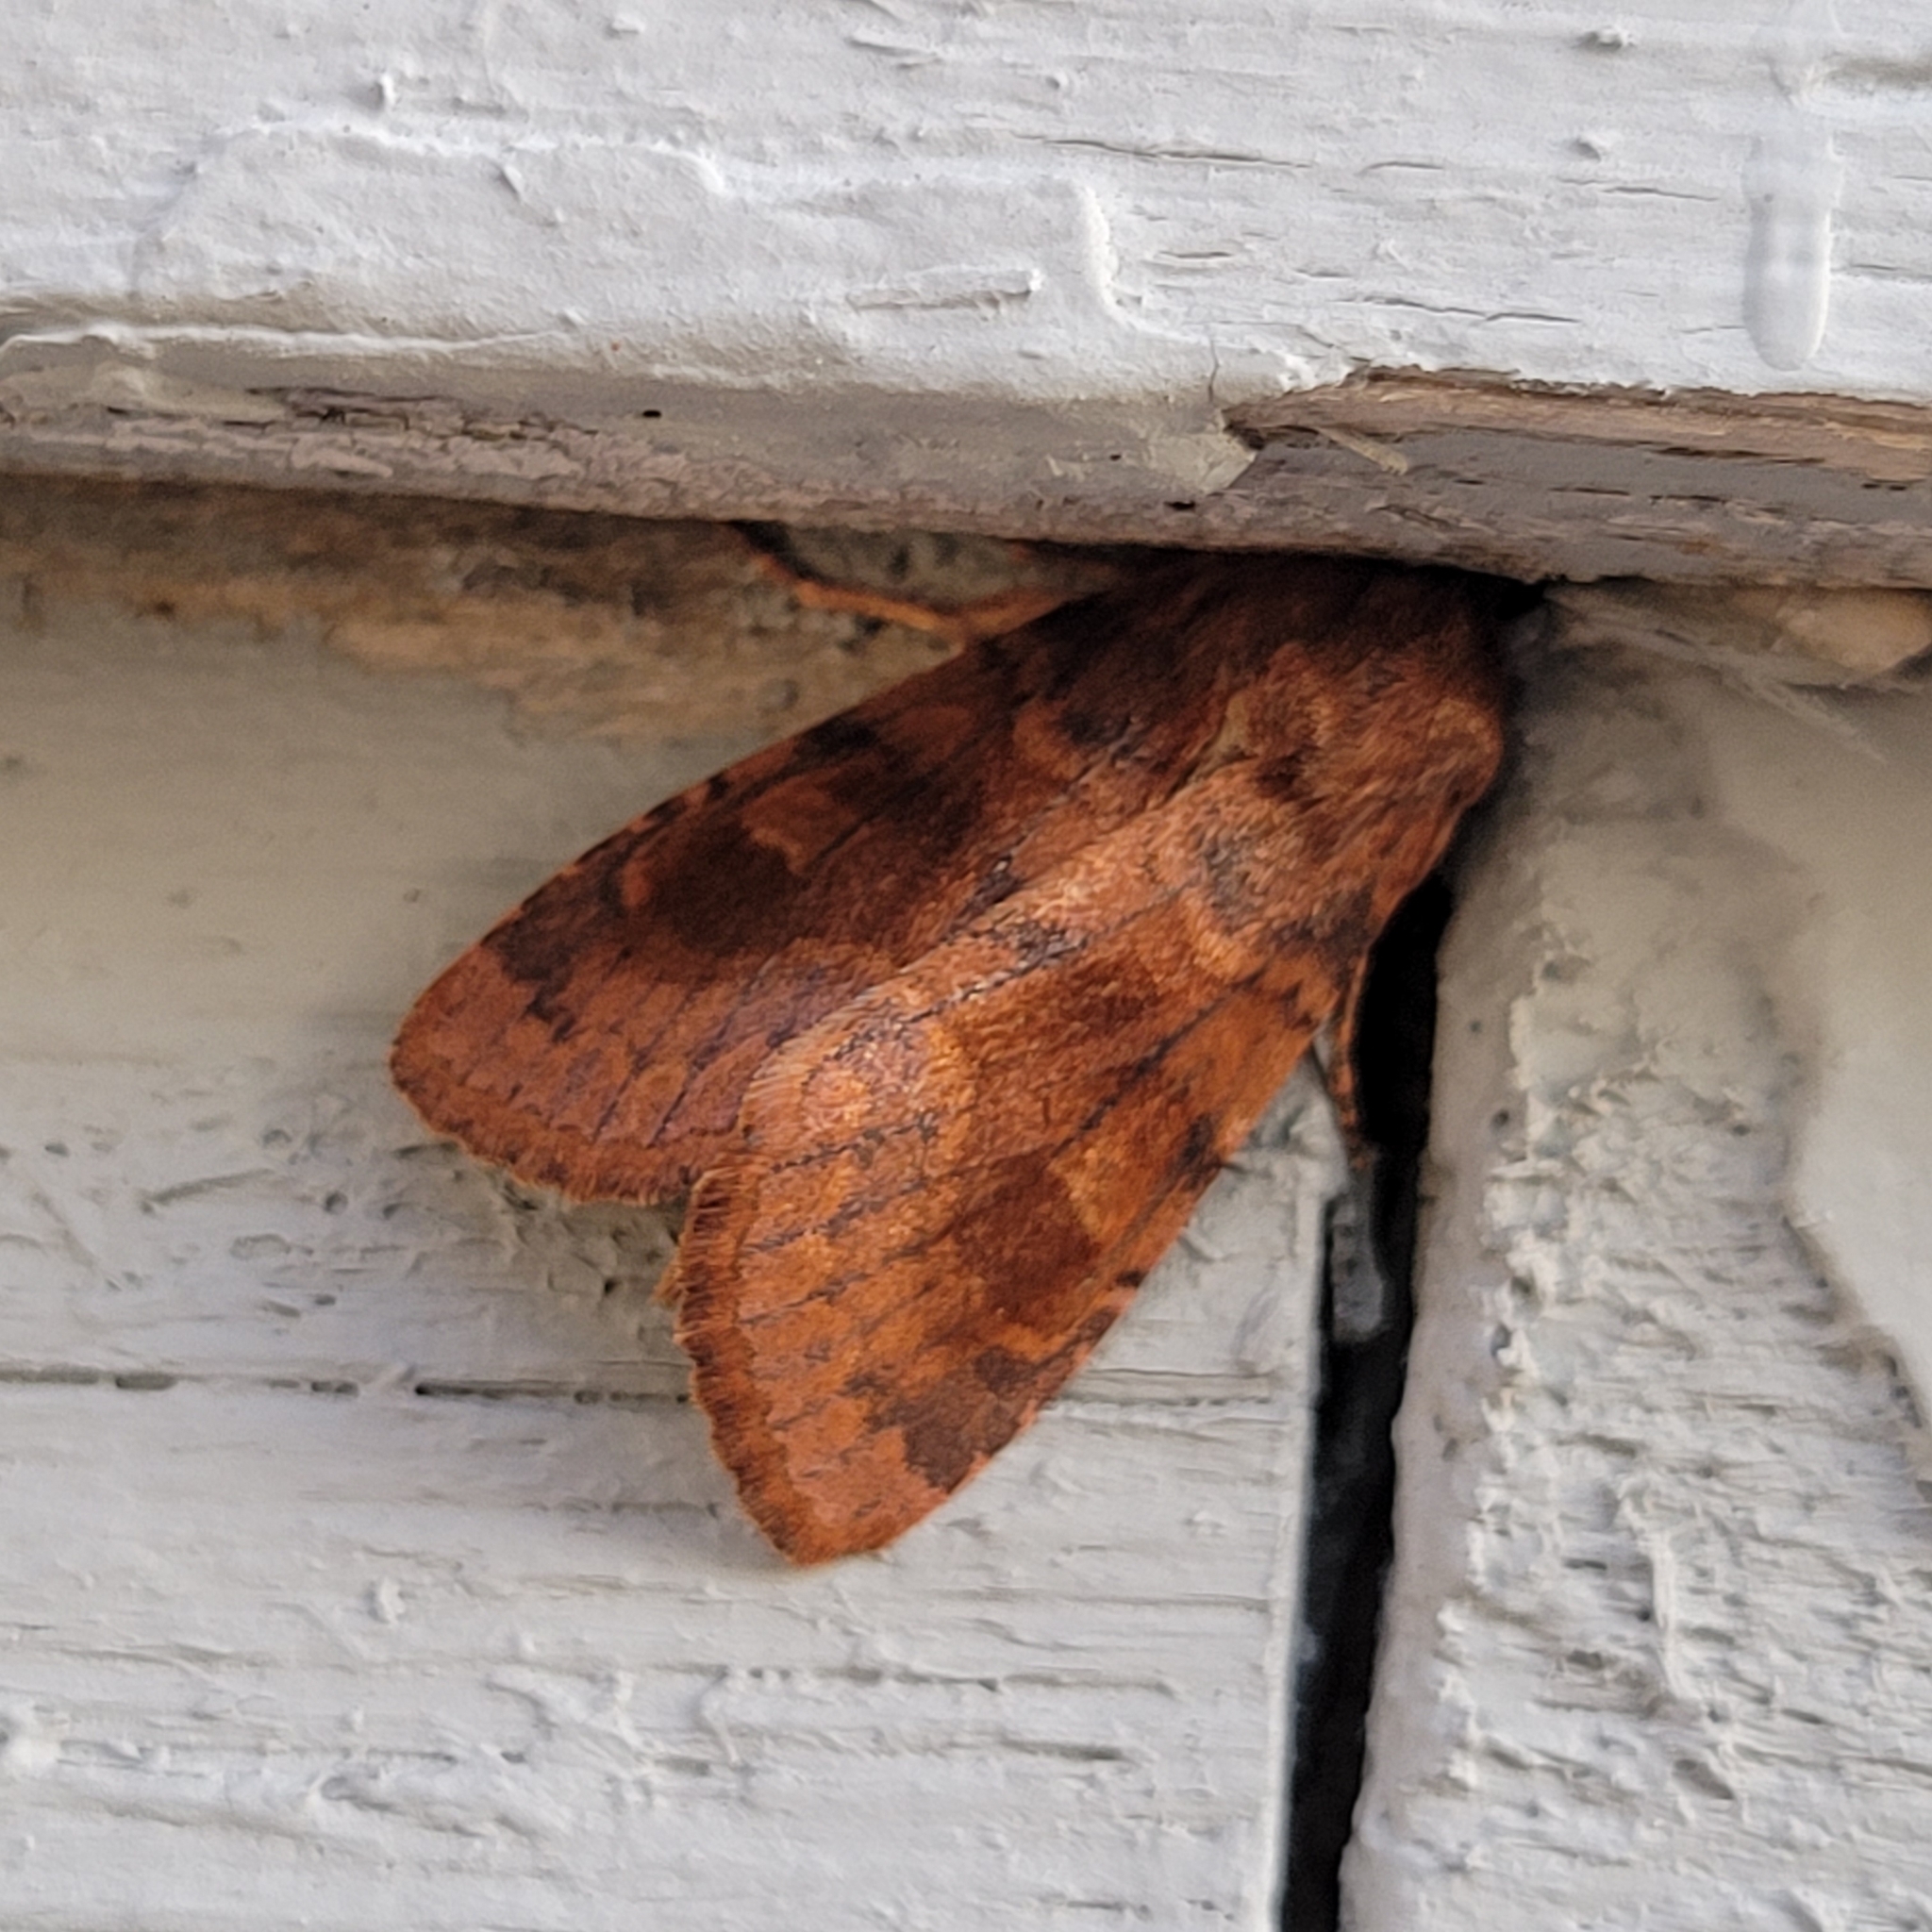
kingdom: Animalia
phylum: Arthropoda
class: Insecta
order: Lepidoptera
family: Noctuidae
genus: Nephelodes
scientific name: Nephelodes minians
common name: Bronzed cutworm
